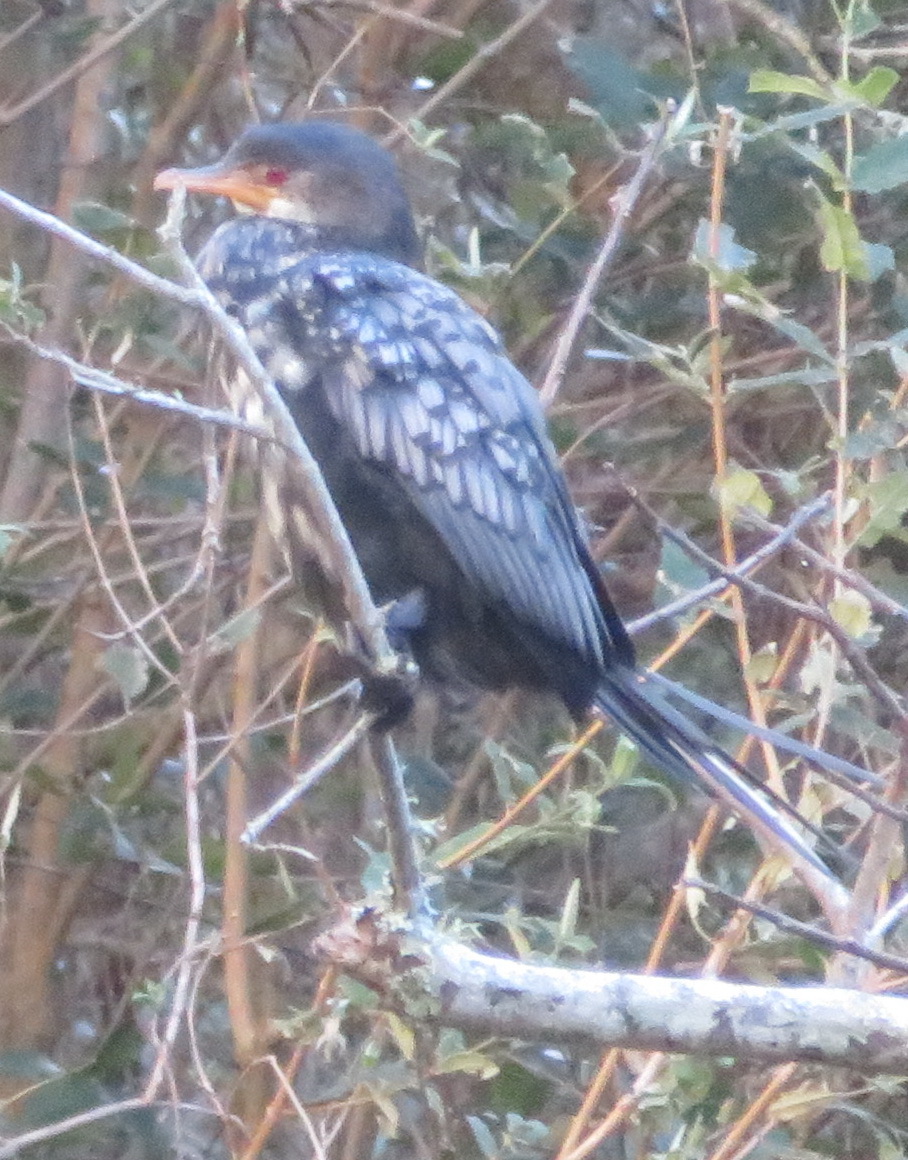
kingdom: Animalia
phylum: Chordata
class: Aves
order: Suliformes
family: Phalacrocoracidae
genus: Microcarbo
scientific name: Microcarbo africanus
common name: Long-tailed cormorant
